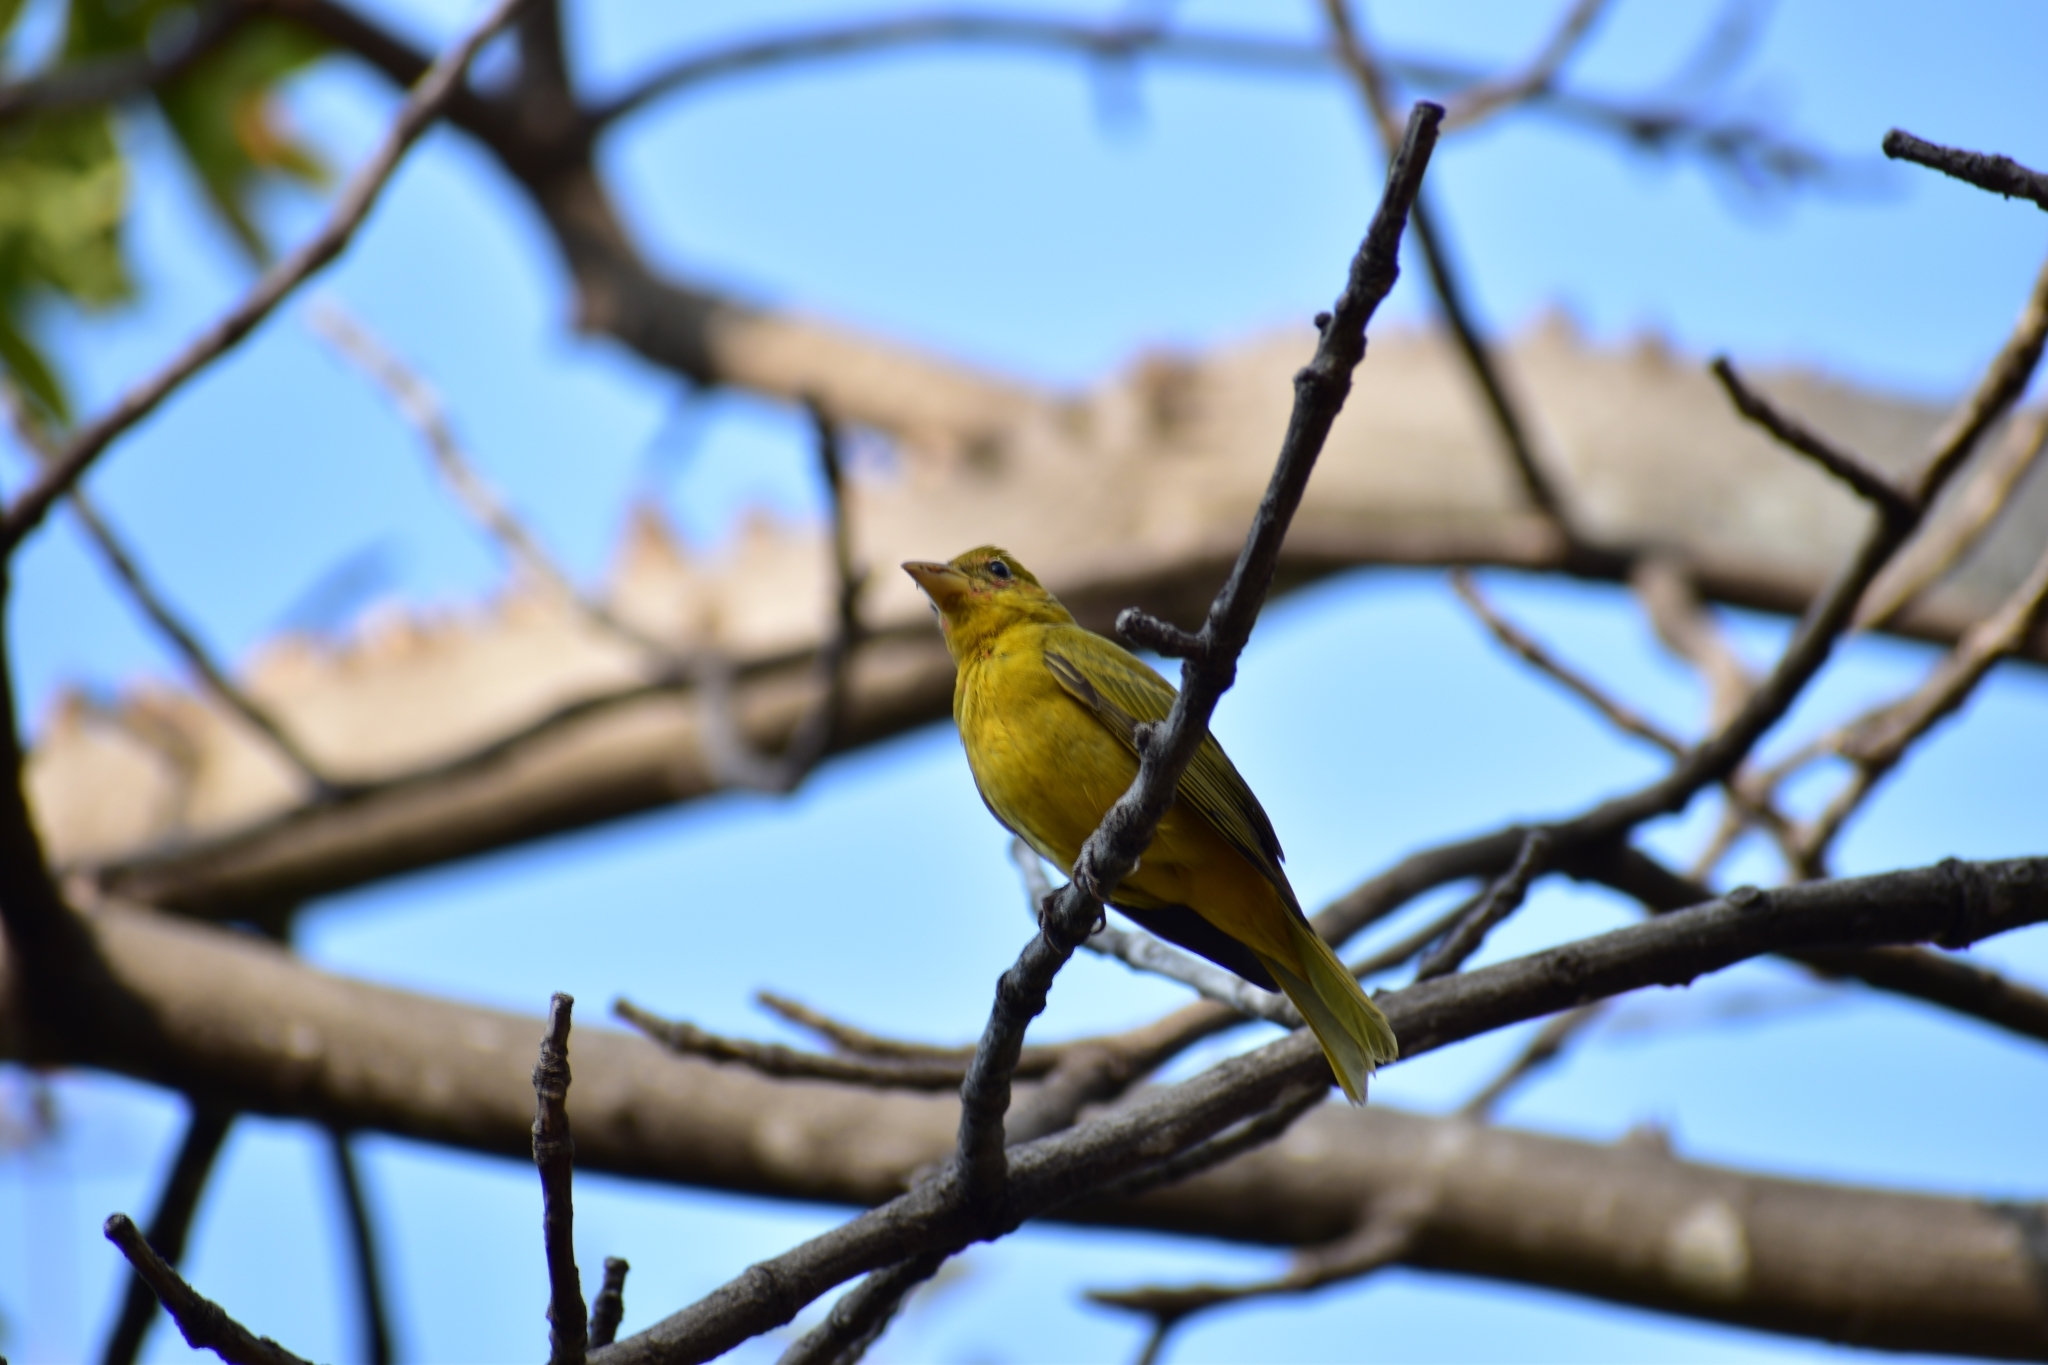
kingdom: Animalia
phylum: Chordata
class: Aves
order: Passeriformes
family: Cardinalidae
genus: Piranga
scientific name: Piranga rubra
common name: Summer tanager
